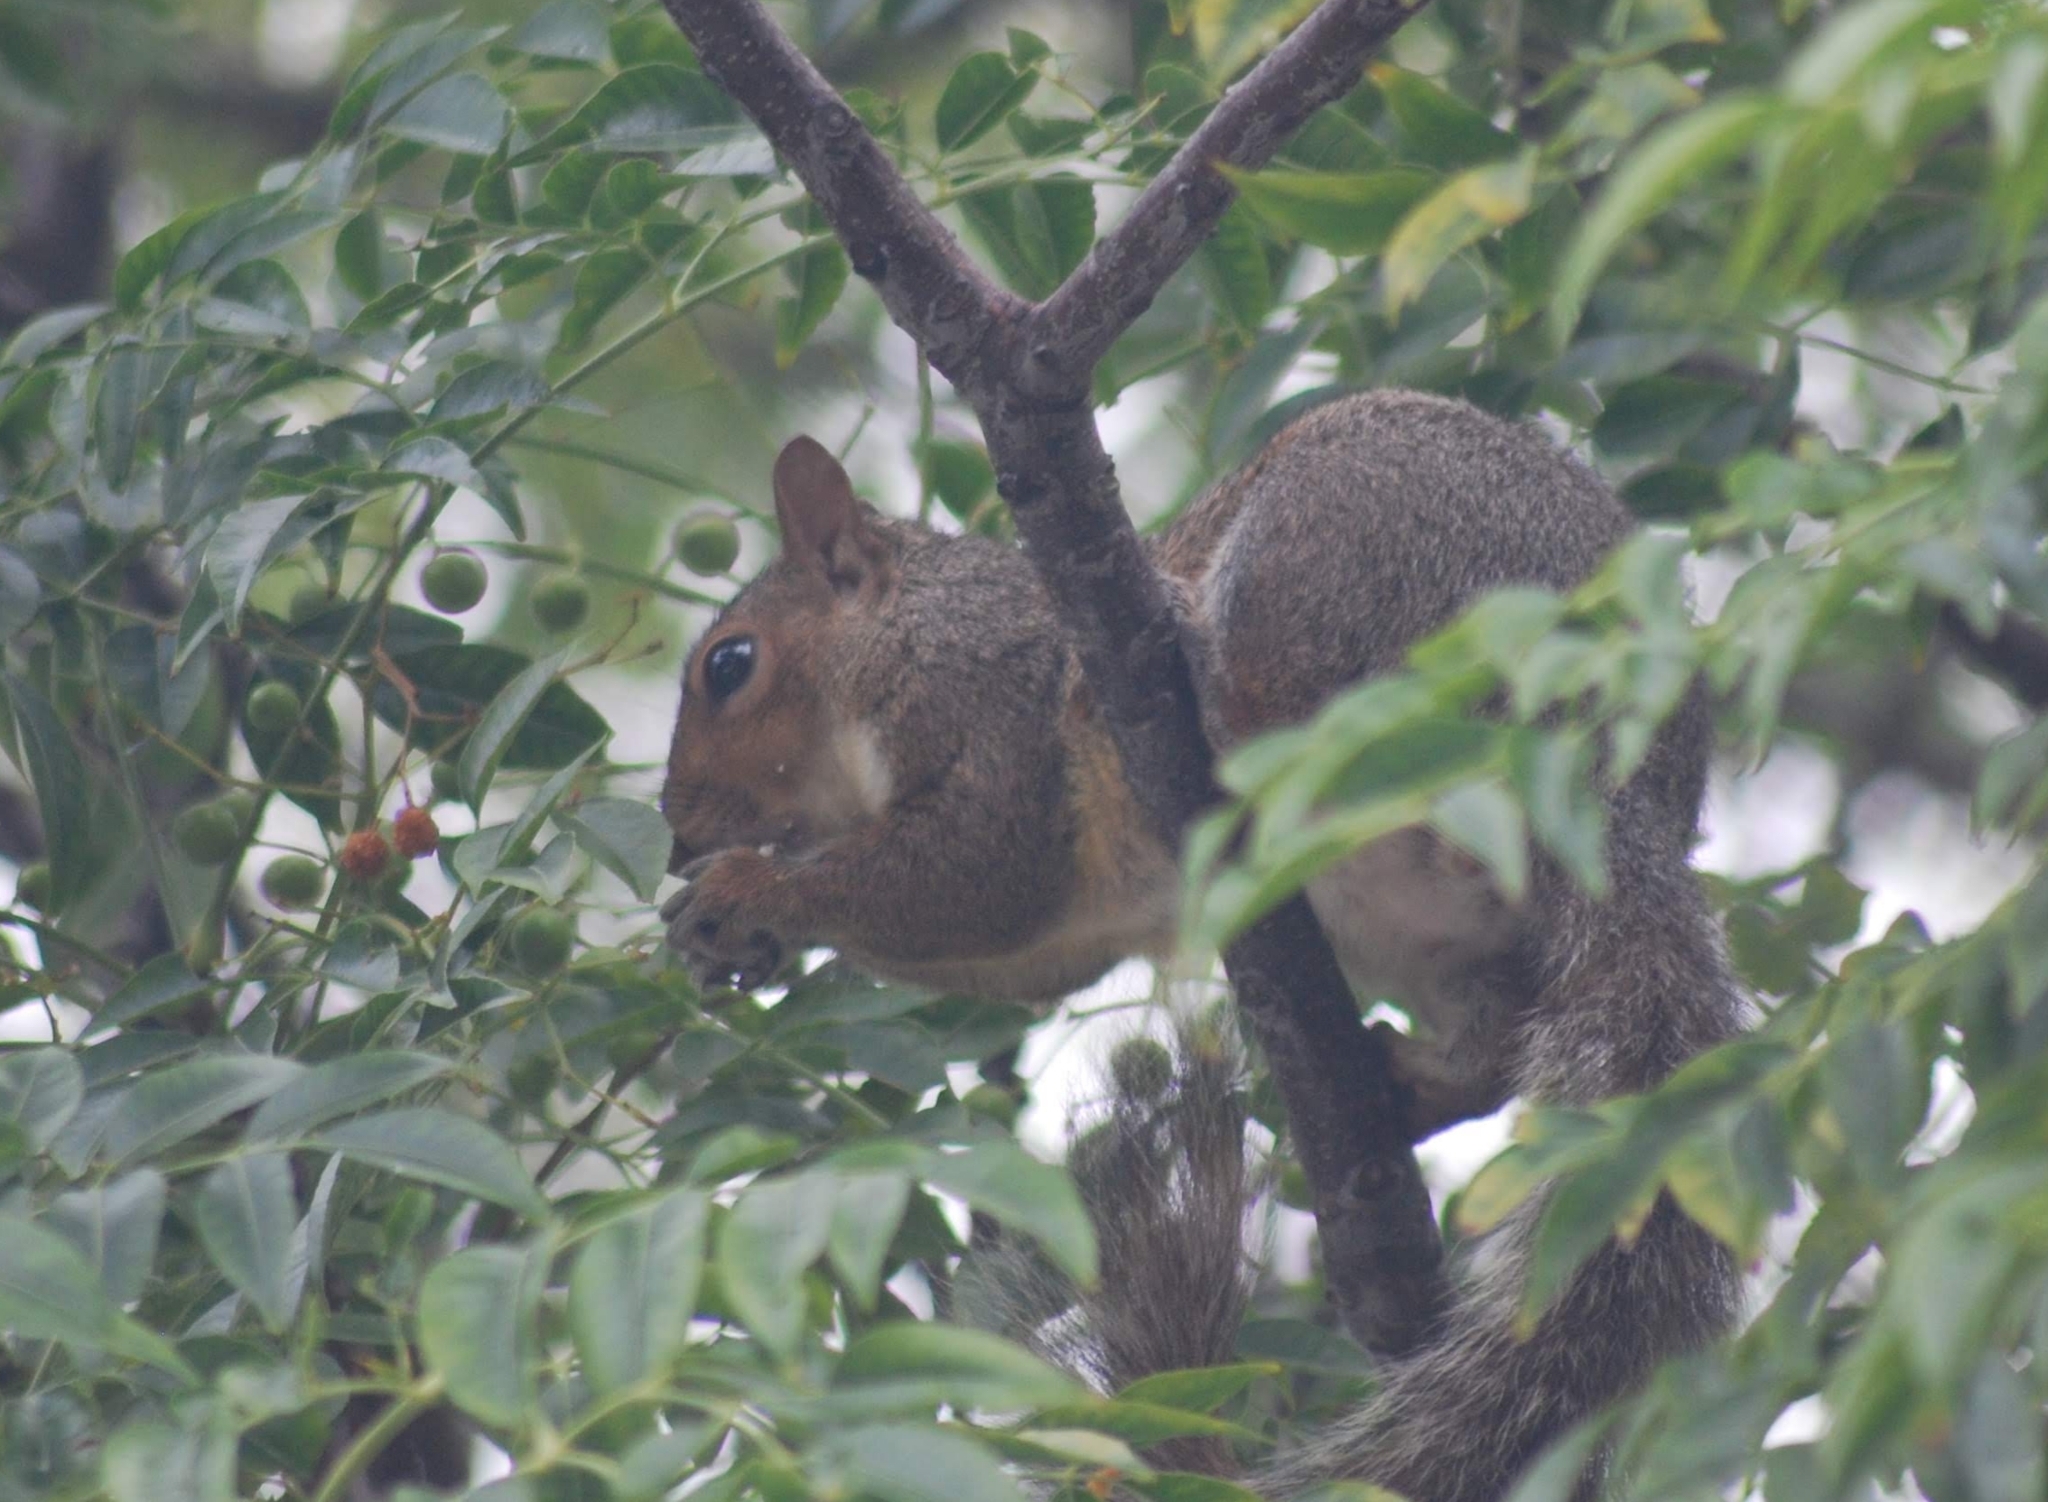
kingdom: Animalia
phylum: Chordata
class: Mammalia
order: Rodentia
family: Sciuridae
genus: Sciurus
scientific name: Sciurus carolinensis
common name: Eastern gray squirrel
